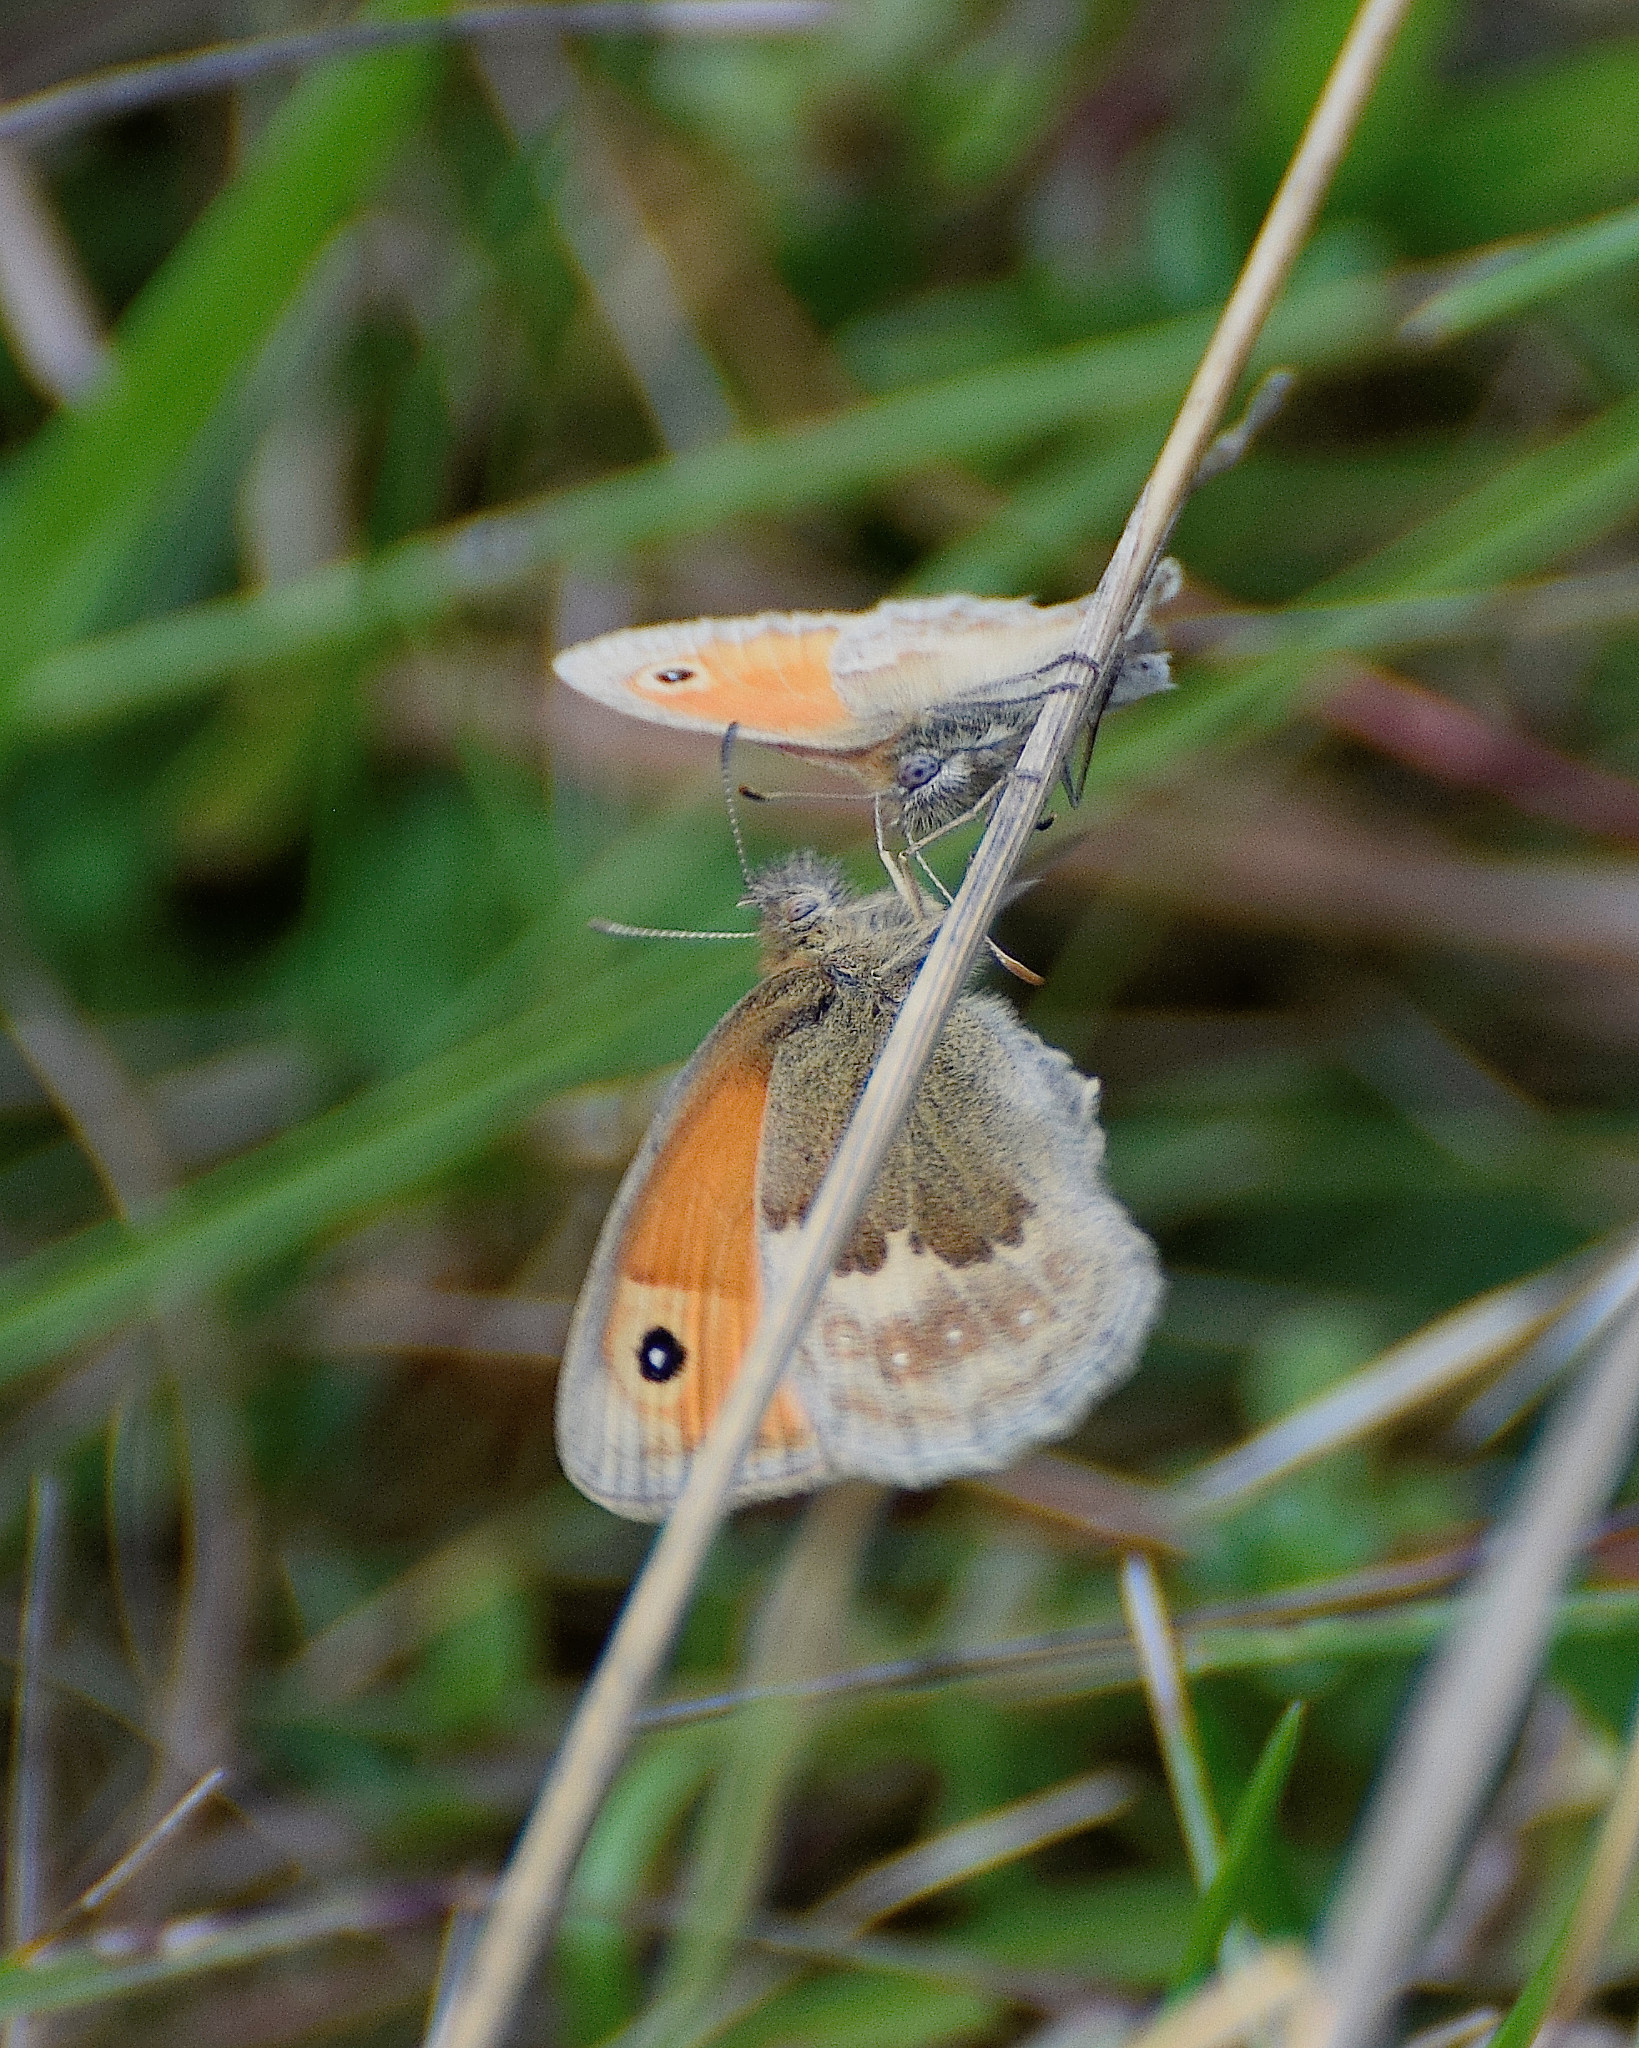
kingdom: Animalia
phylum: Arthropoda
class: Insecta
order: Lepidoptera
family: Nymphalidae
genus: Coenonympha
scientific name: Coenonympha pamphilus
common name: Small heath
